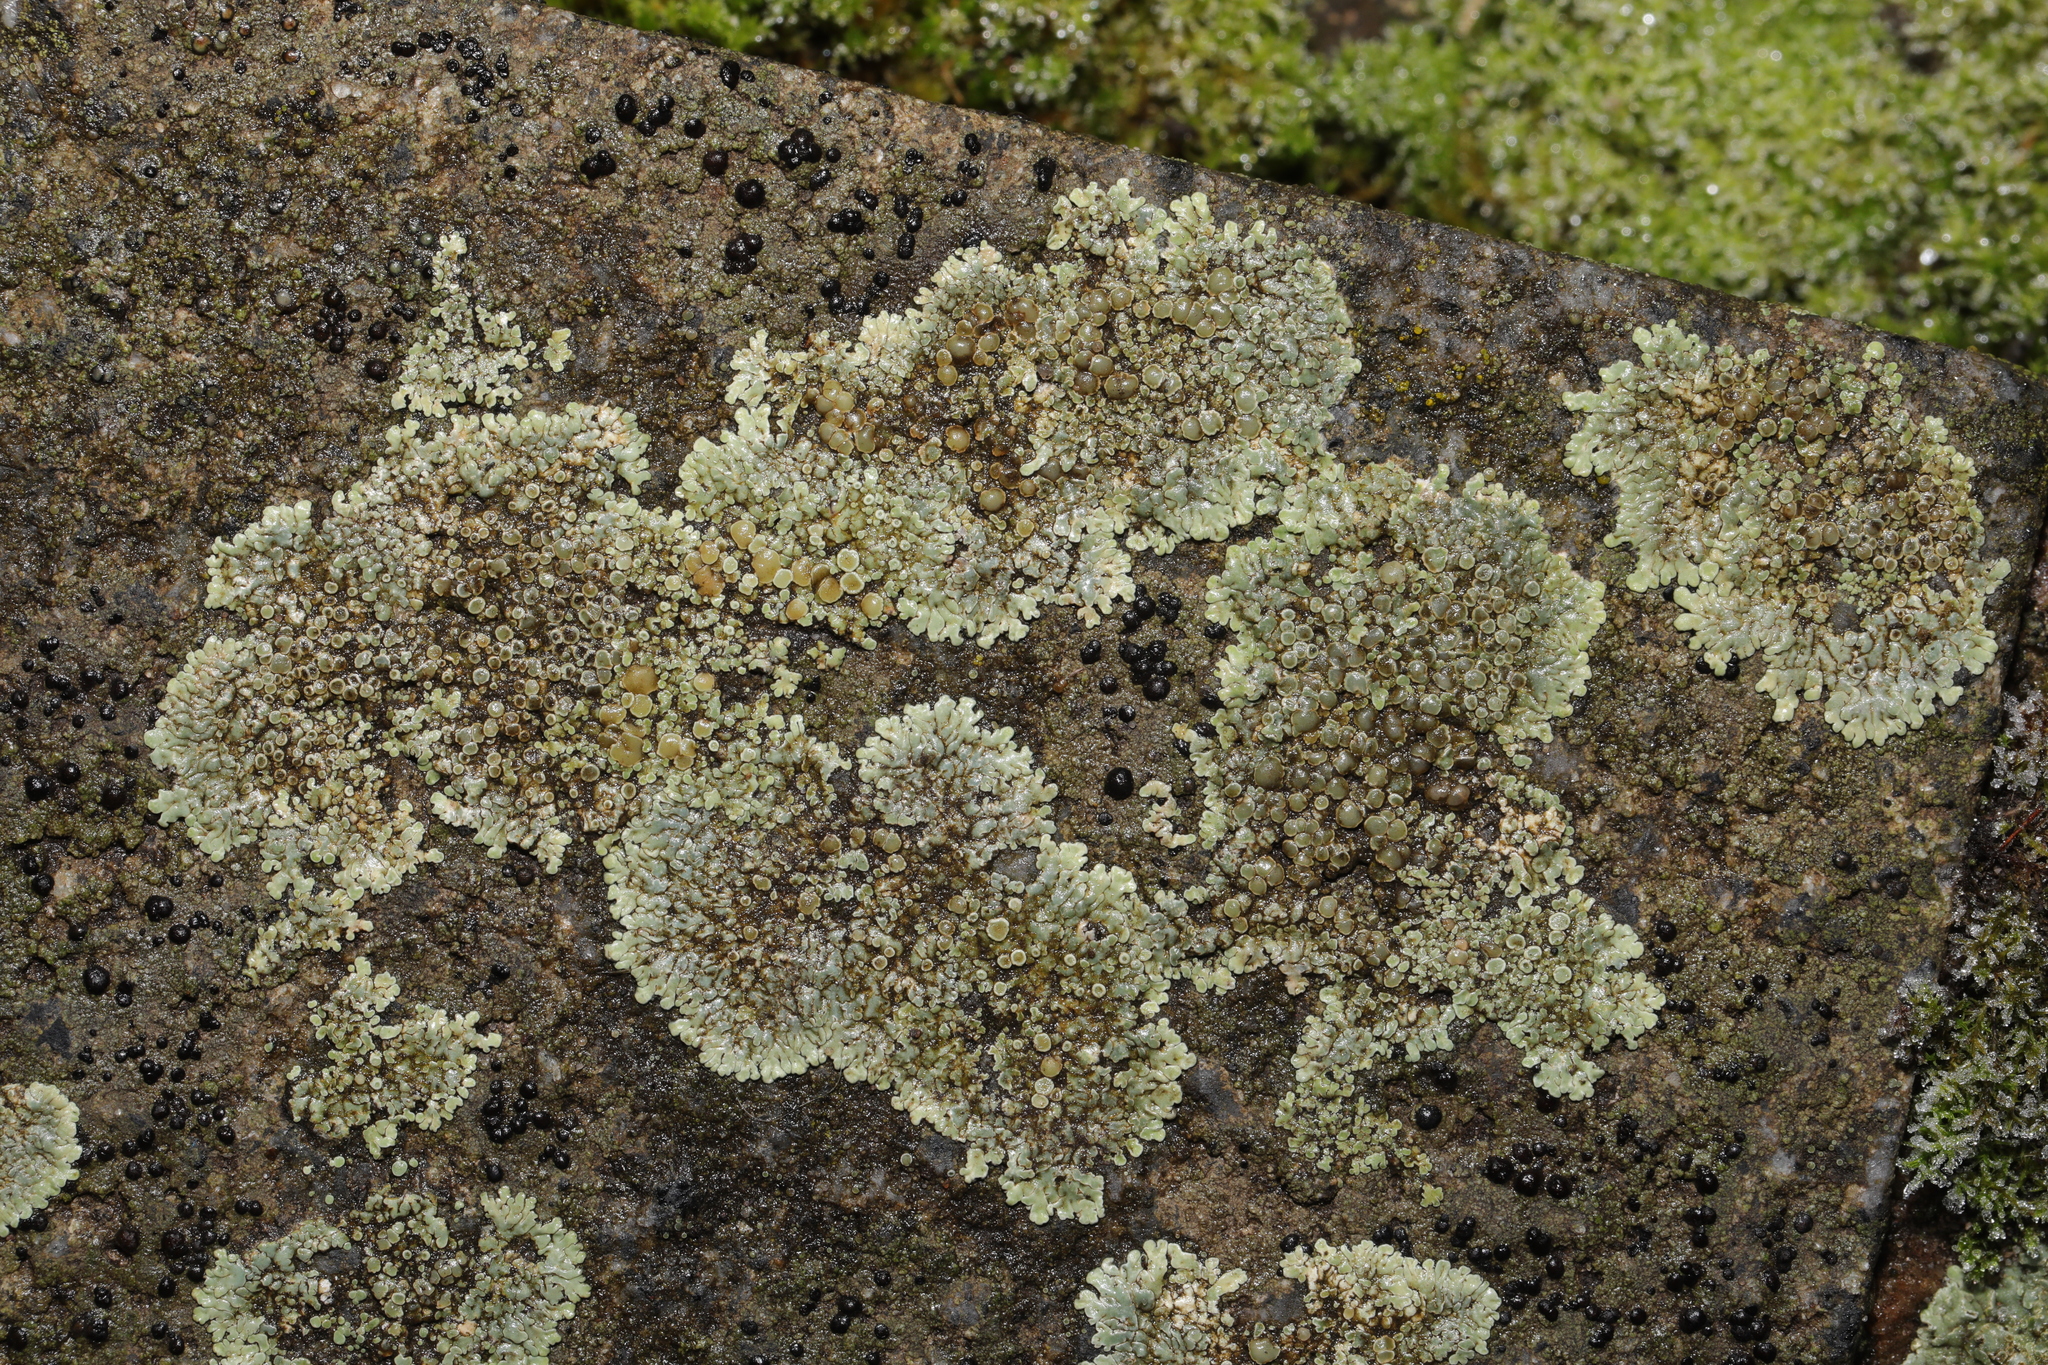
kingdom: Fungi
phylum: Ascomycota
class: Lecanoromycetes
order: Lecanorales
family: Lecanoraceae
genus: Protoparmeliopsis
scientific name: Protoparmeliopsis muralis
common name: Stonewall rim lichen
